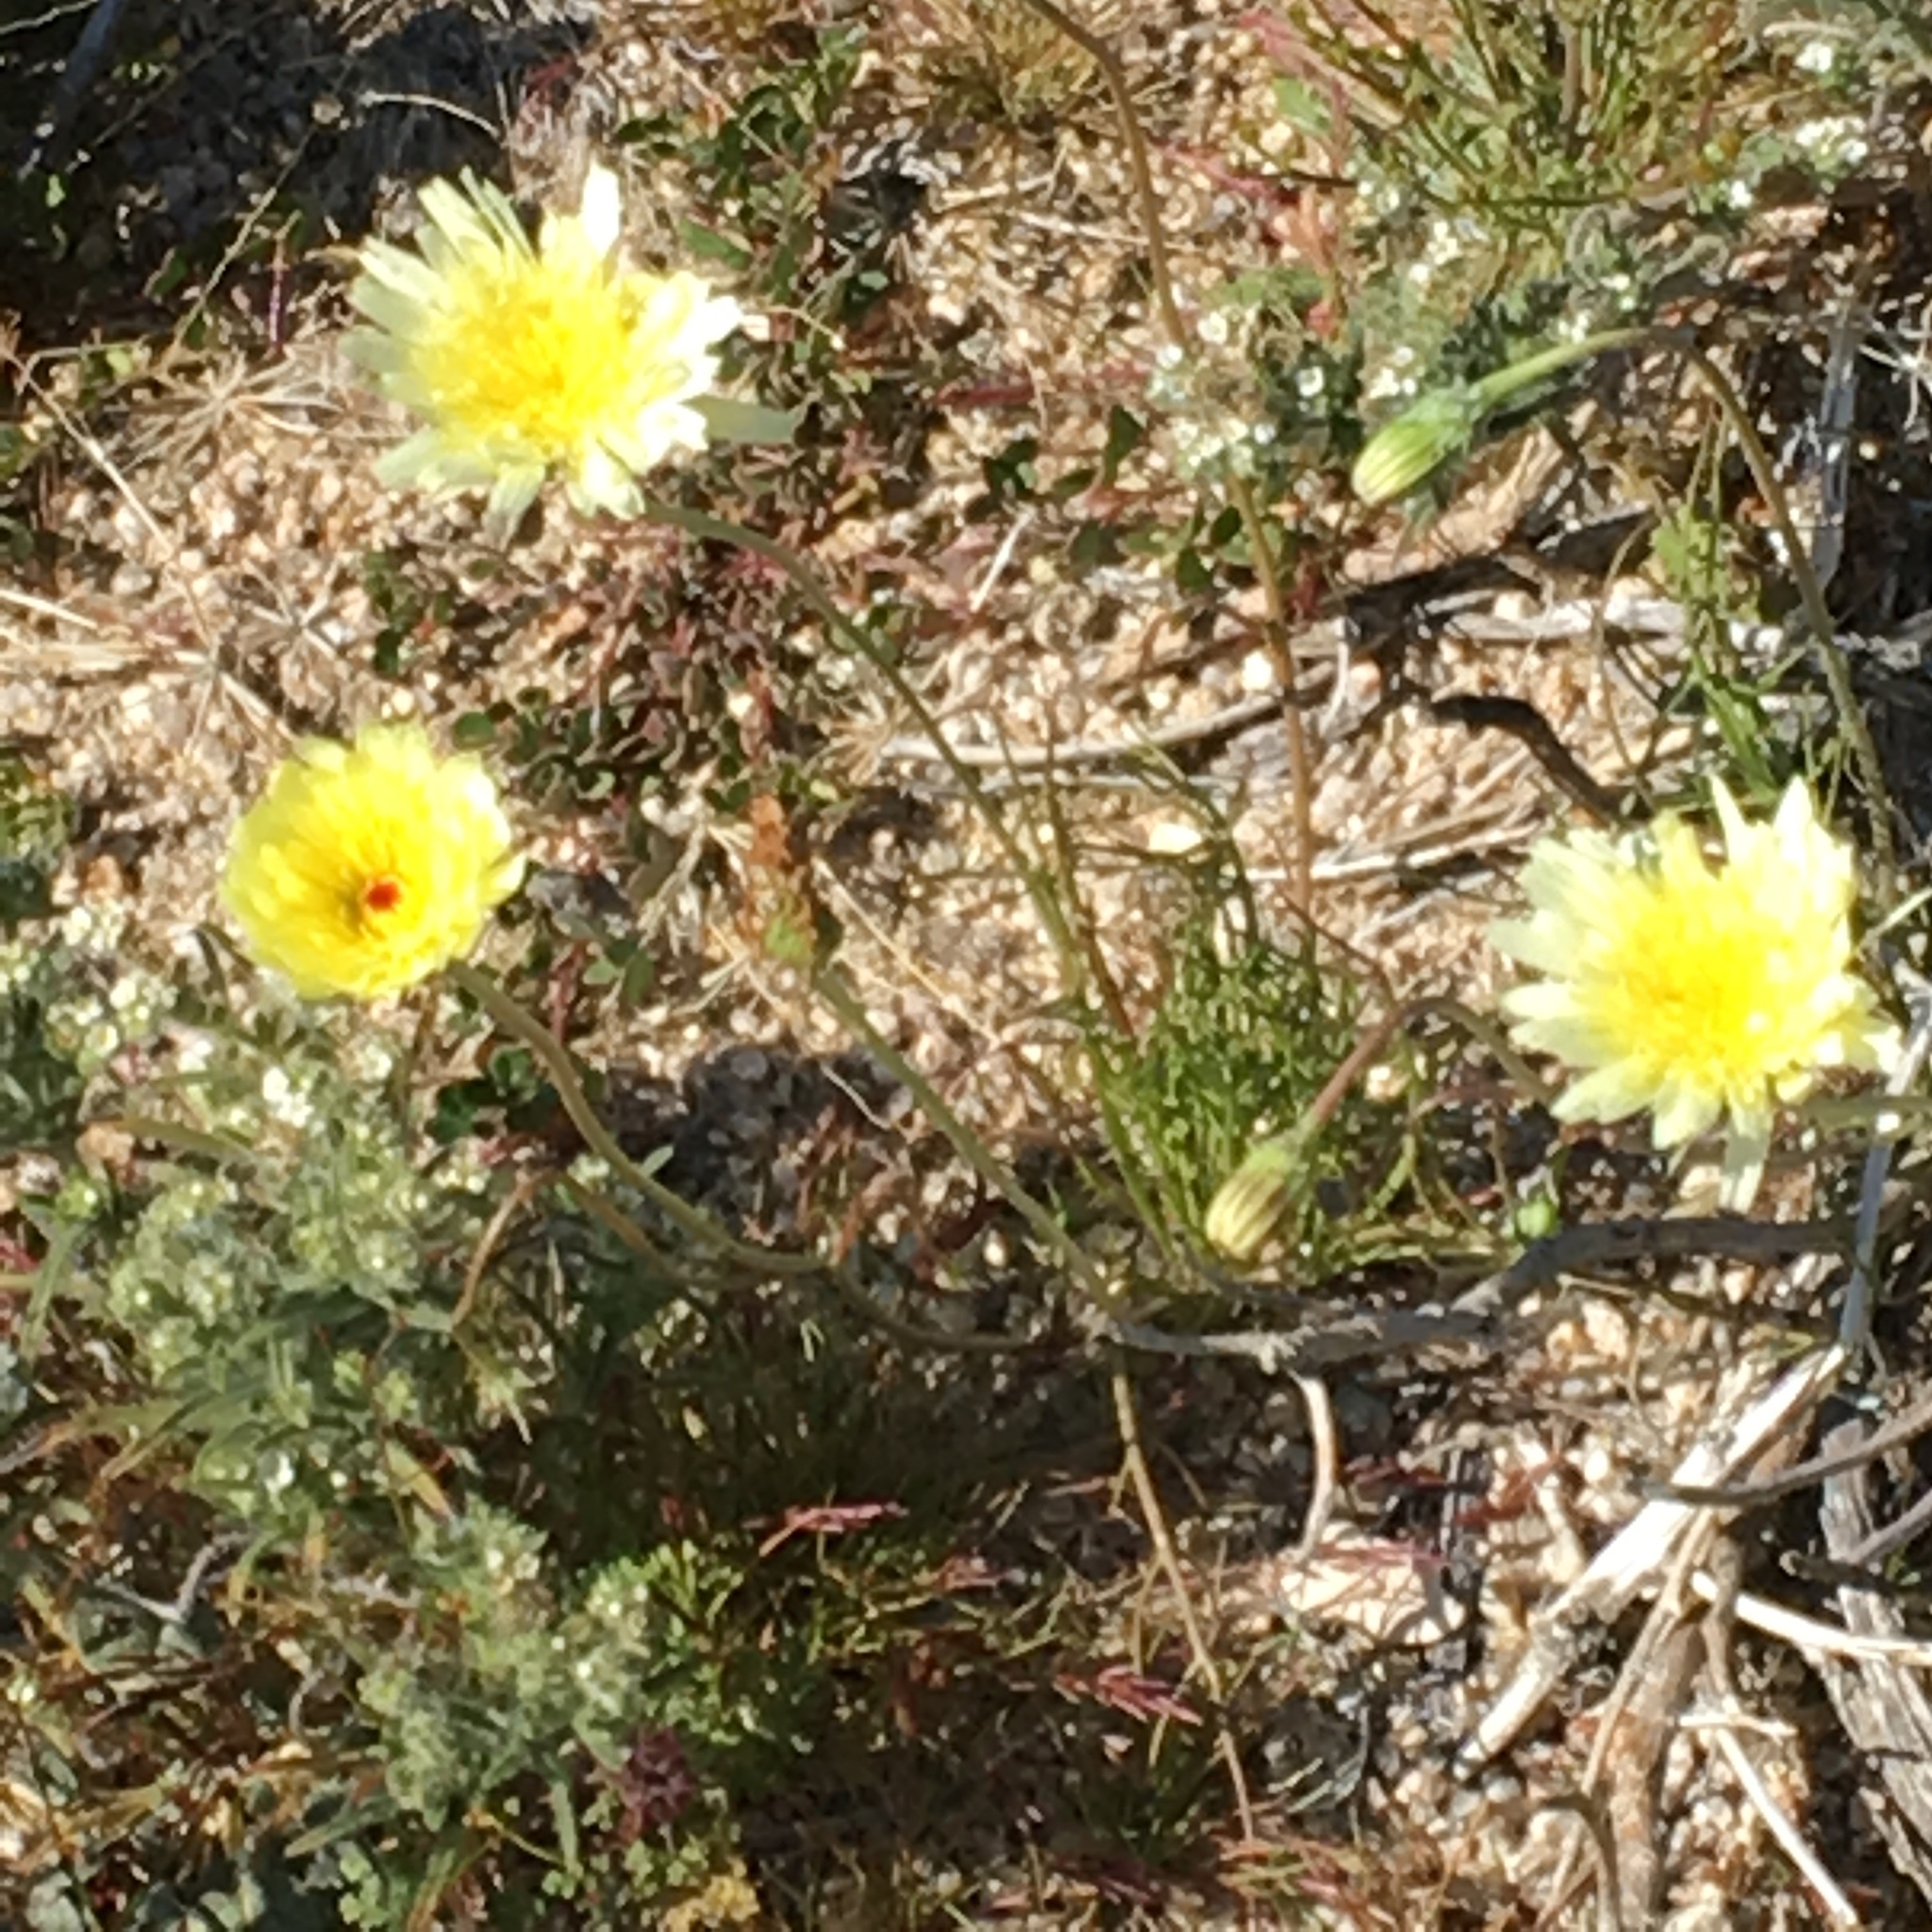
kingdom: Plantae
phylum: Tracheophyta
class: Magnoliopsida
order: Asterales
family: Asteraceae
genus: Malacothrix
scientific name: Malacothrix glabrata
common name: Smooth desert-dandelion
